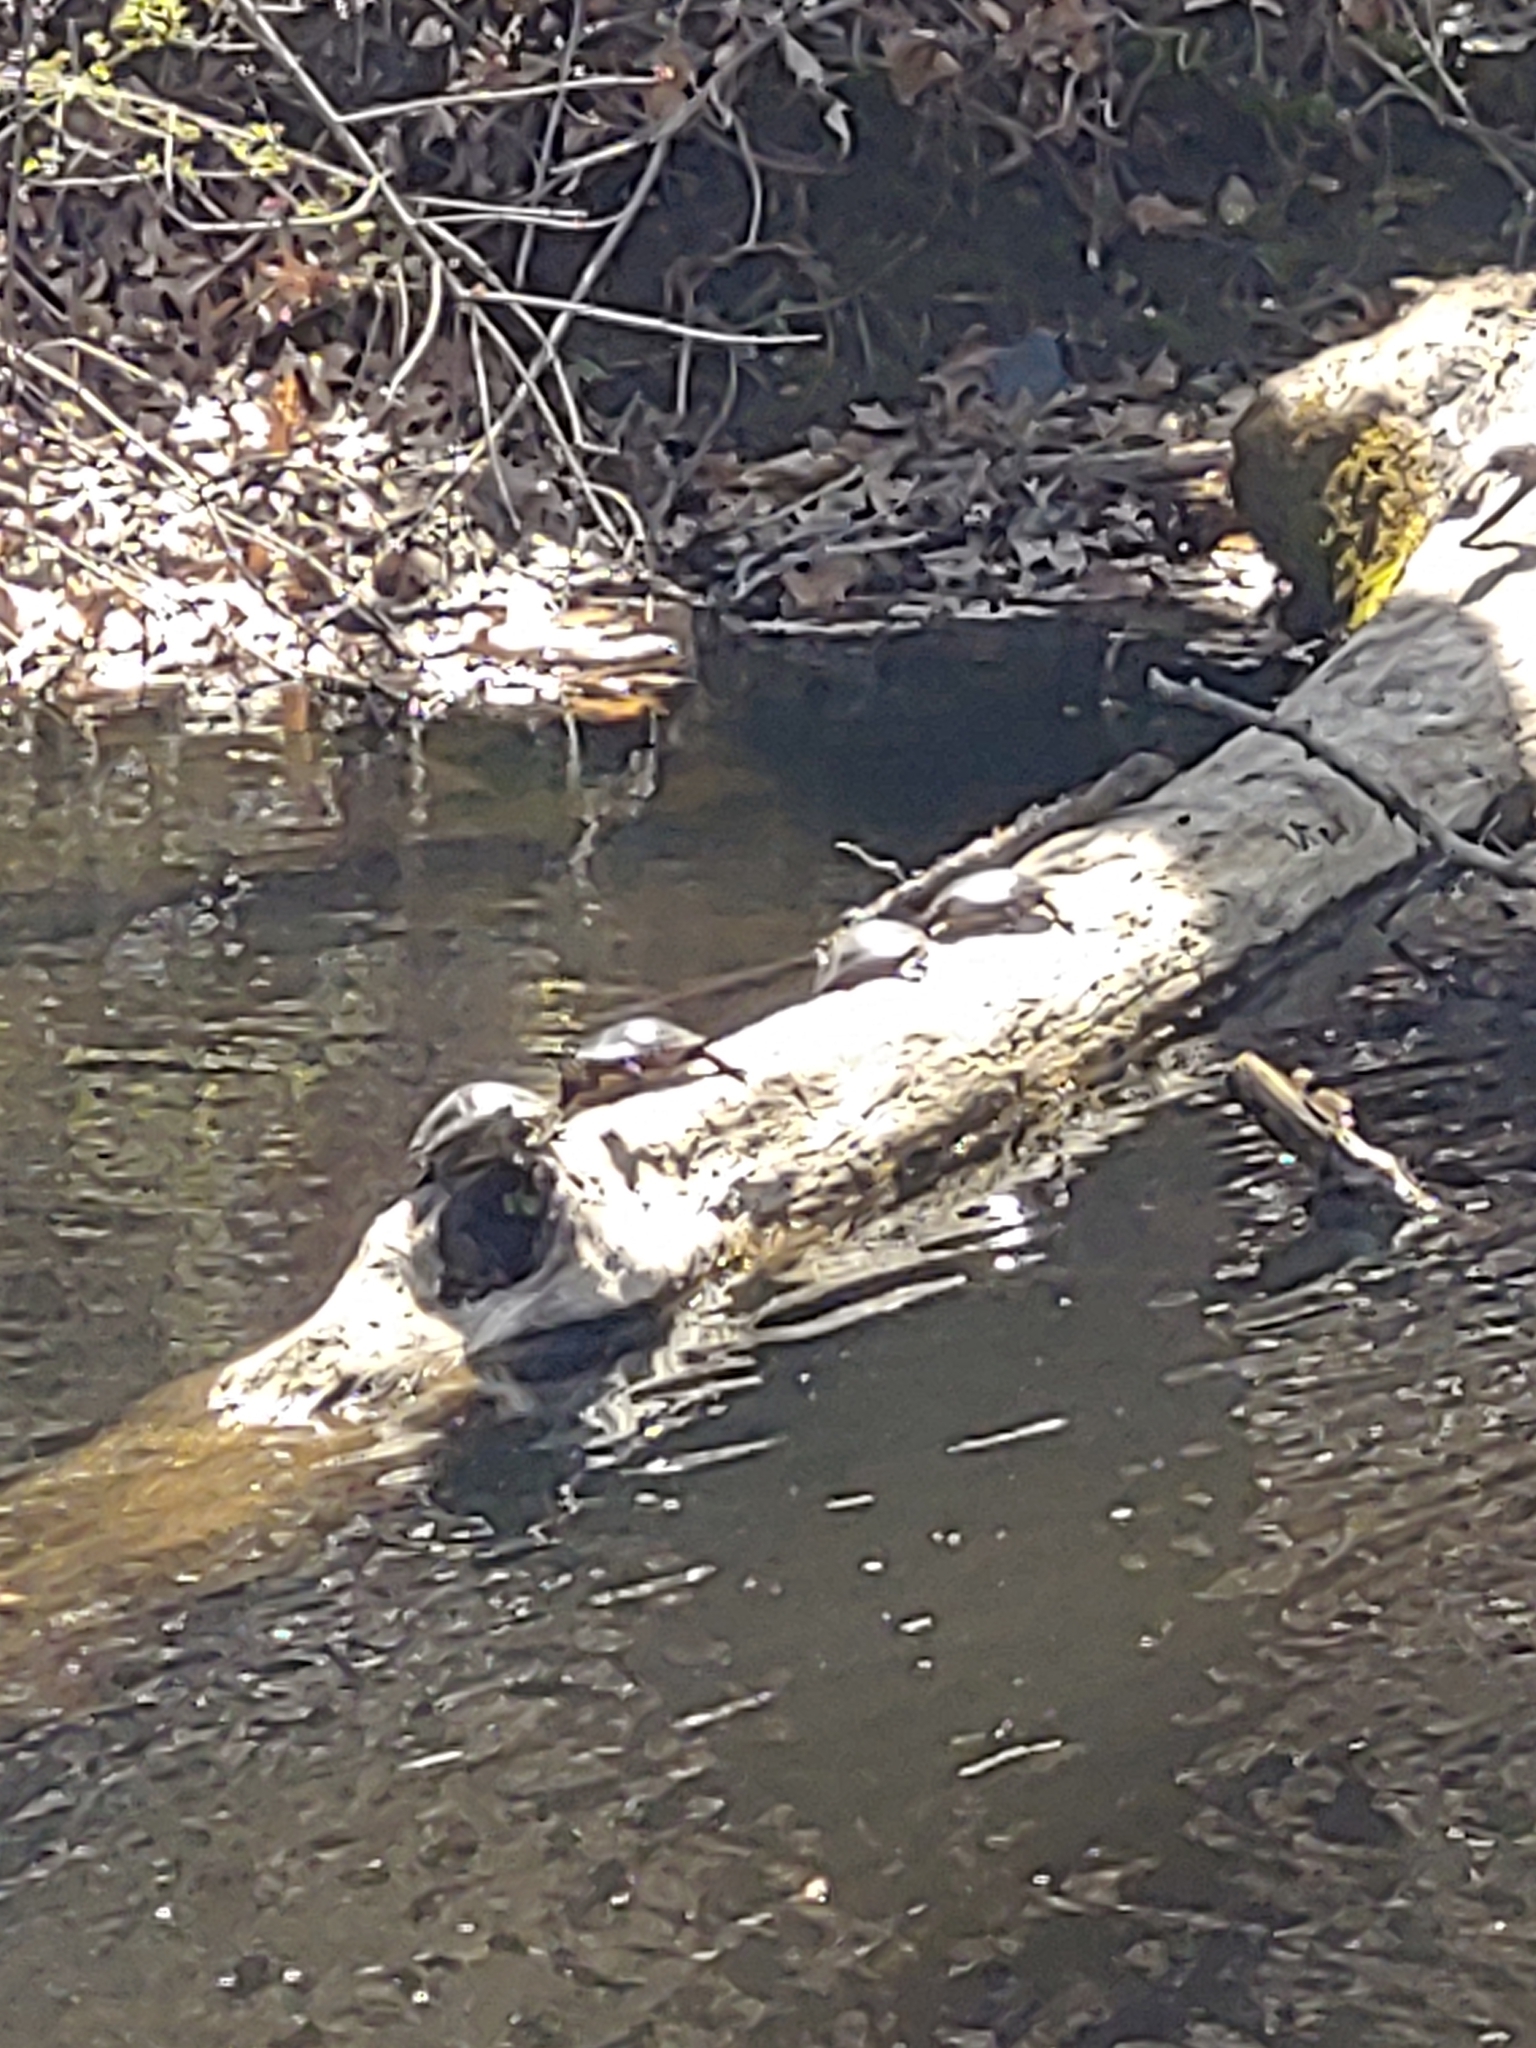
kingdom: Animalia
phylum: Chordata
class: Testudines
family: Emydidae
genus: Chrysemys
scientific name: Chrysemys picta
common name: Painted turtle
